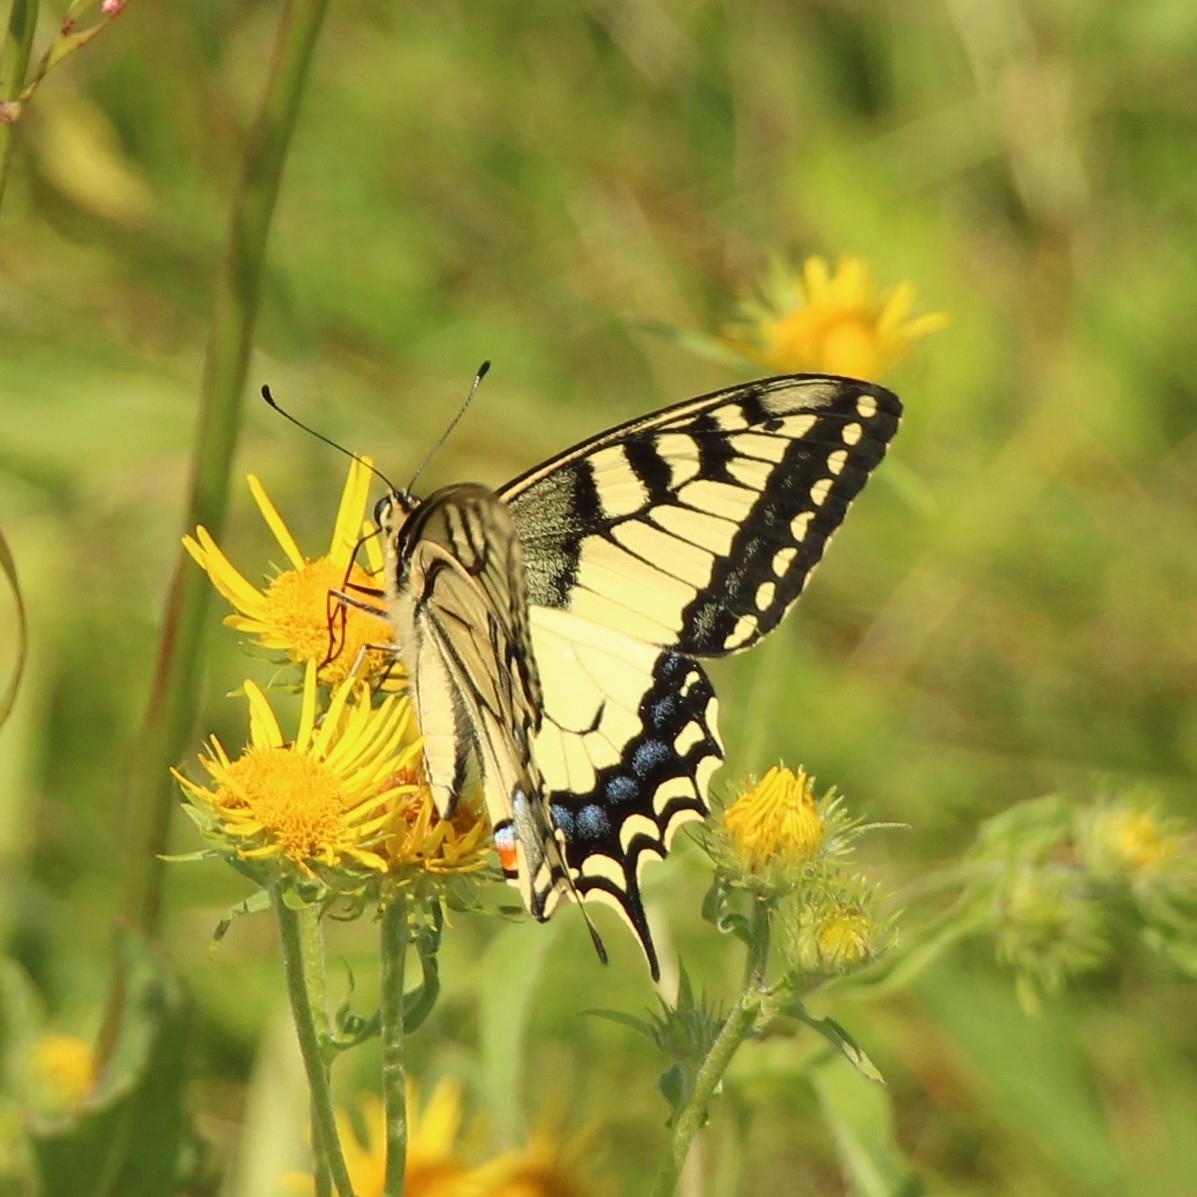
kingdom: Animalia
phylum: Arthropoda
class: Insecta
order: Lepidoptera
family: Papilionidae
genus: Papilio
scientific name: Papilio machaon
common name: Swallowtail
